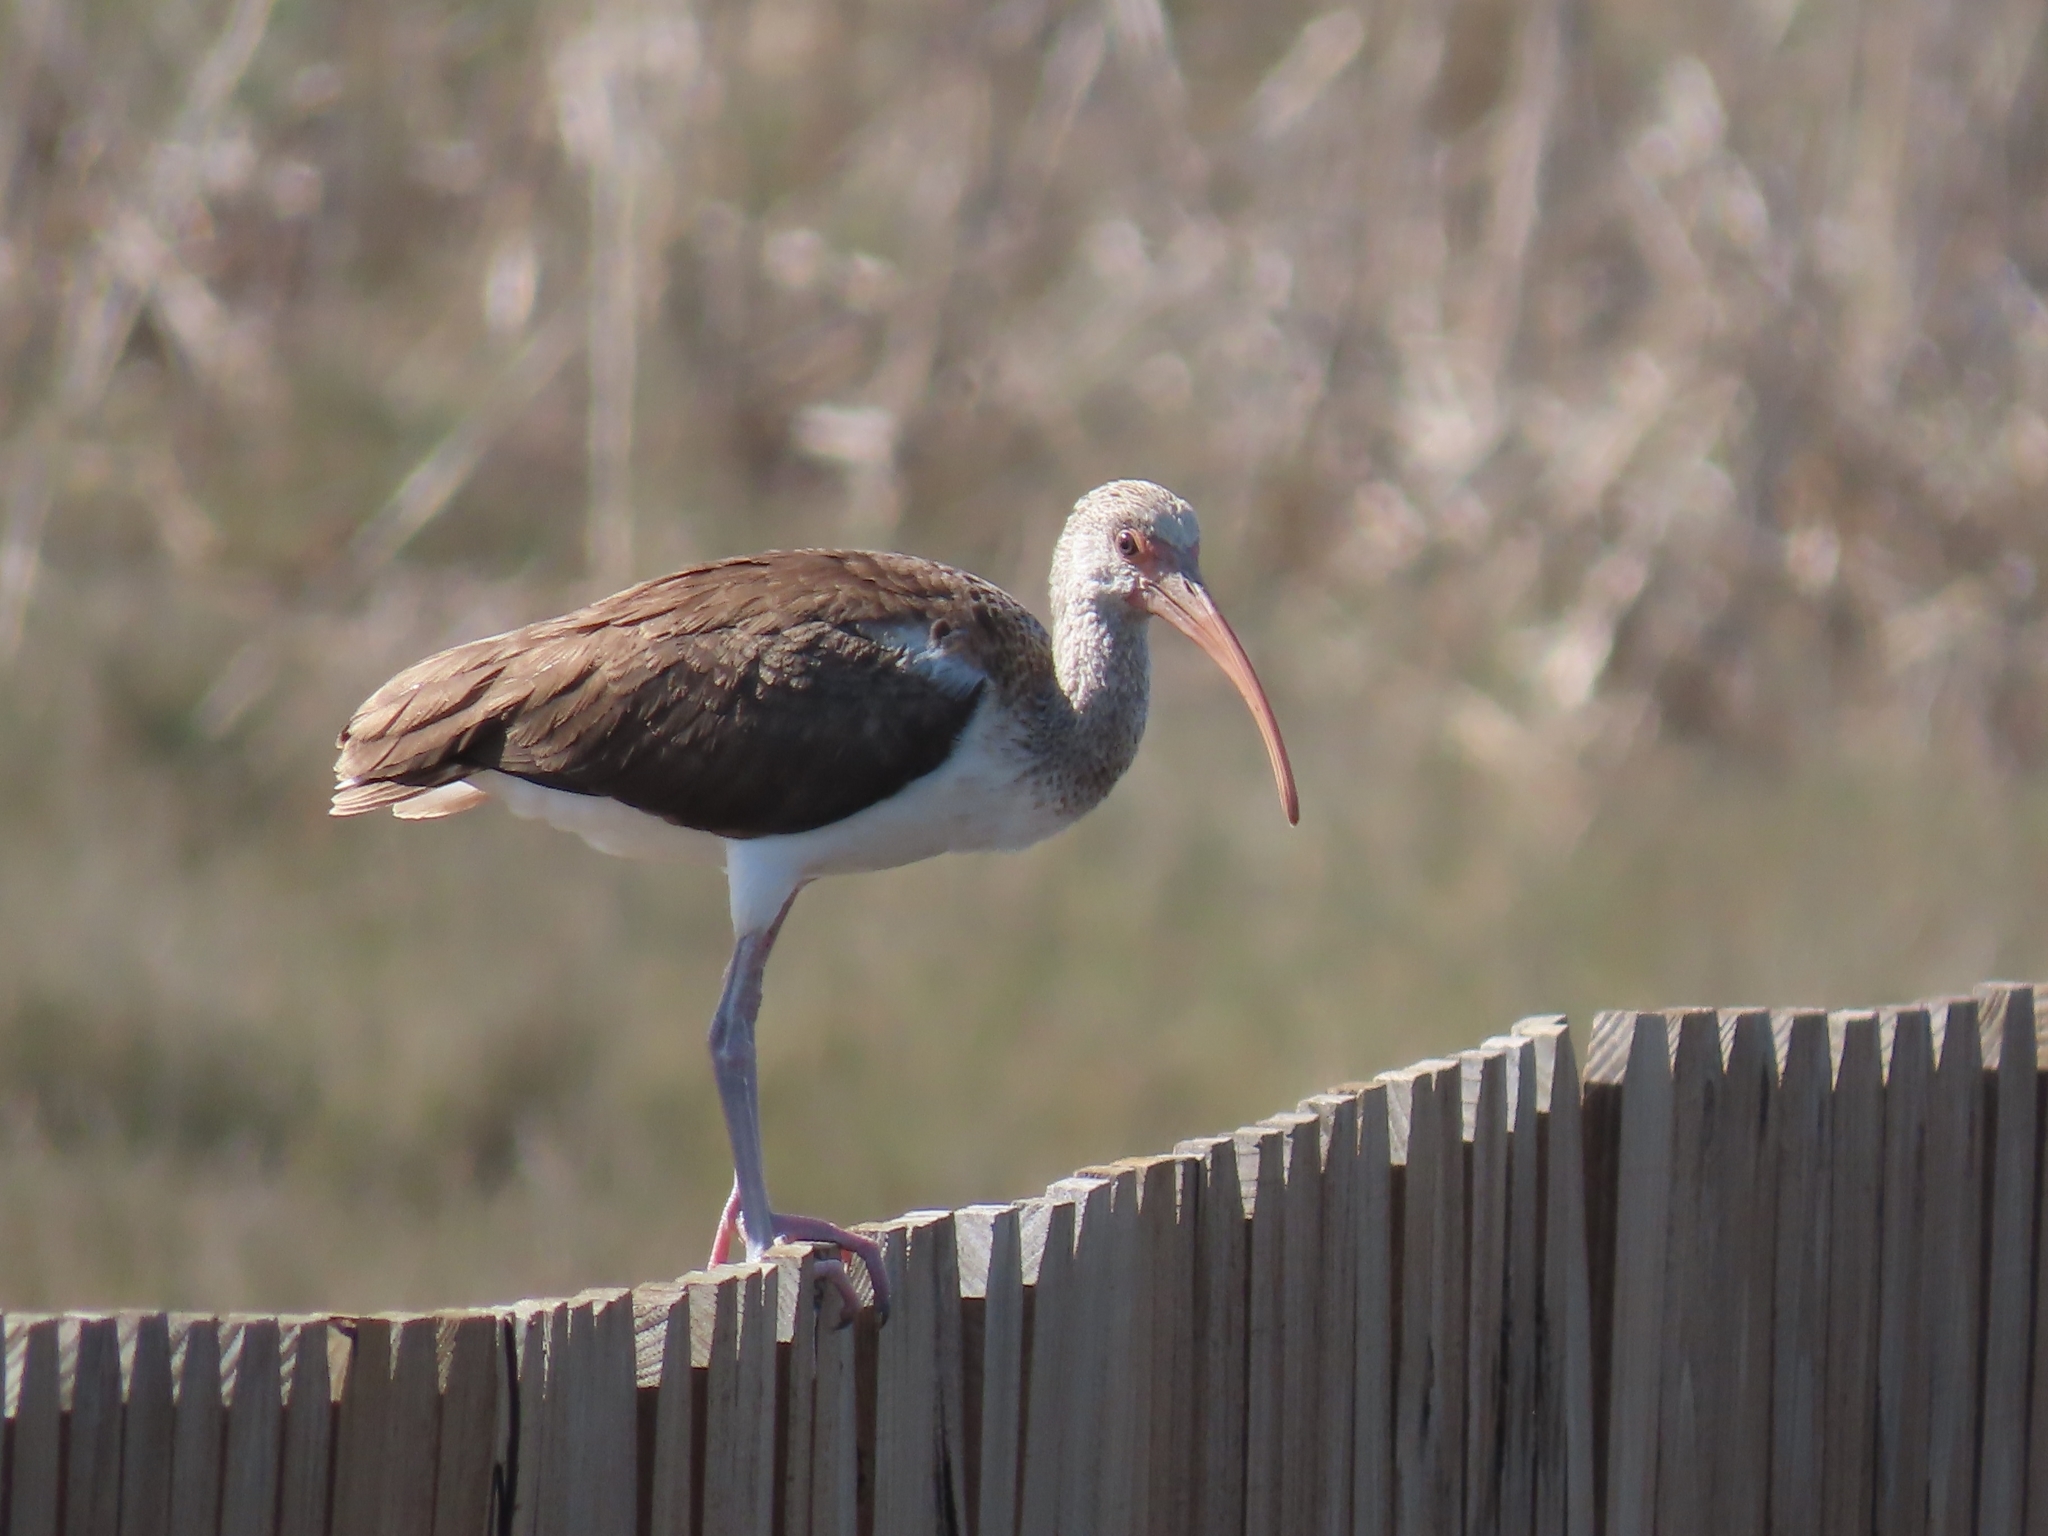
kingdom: Animalia
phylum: Chordata
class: Aves
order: Pelecaniformes
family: Threskiornithidae
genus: Eudocimus
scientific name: Eudocimus albus
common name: White ibis
